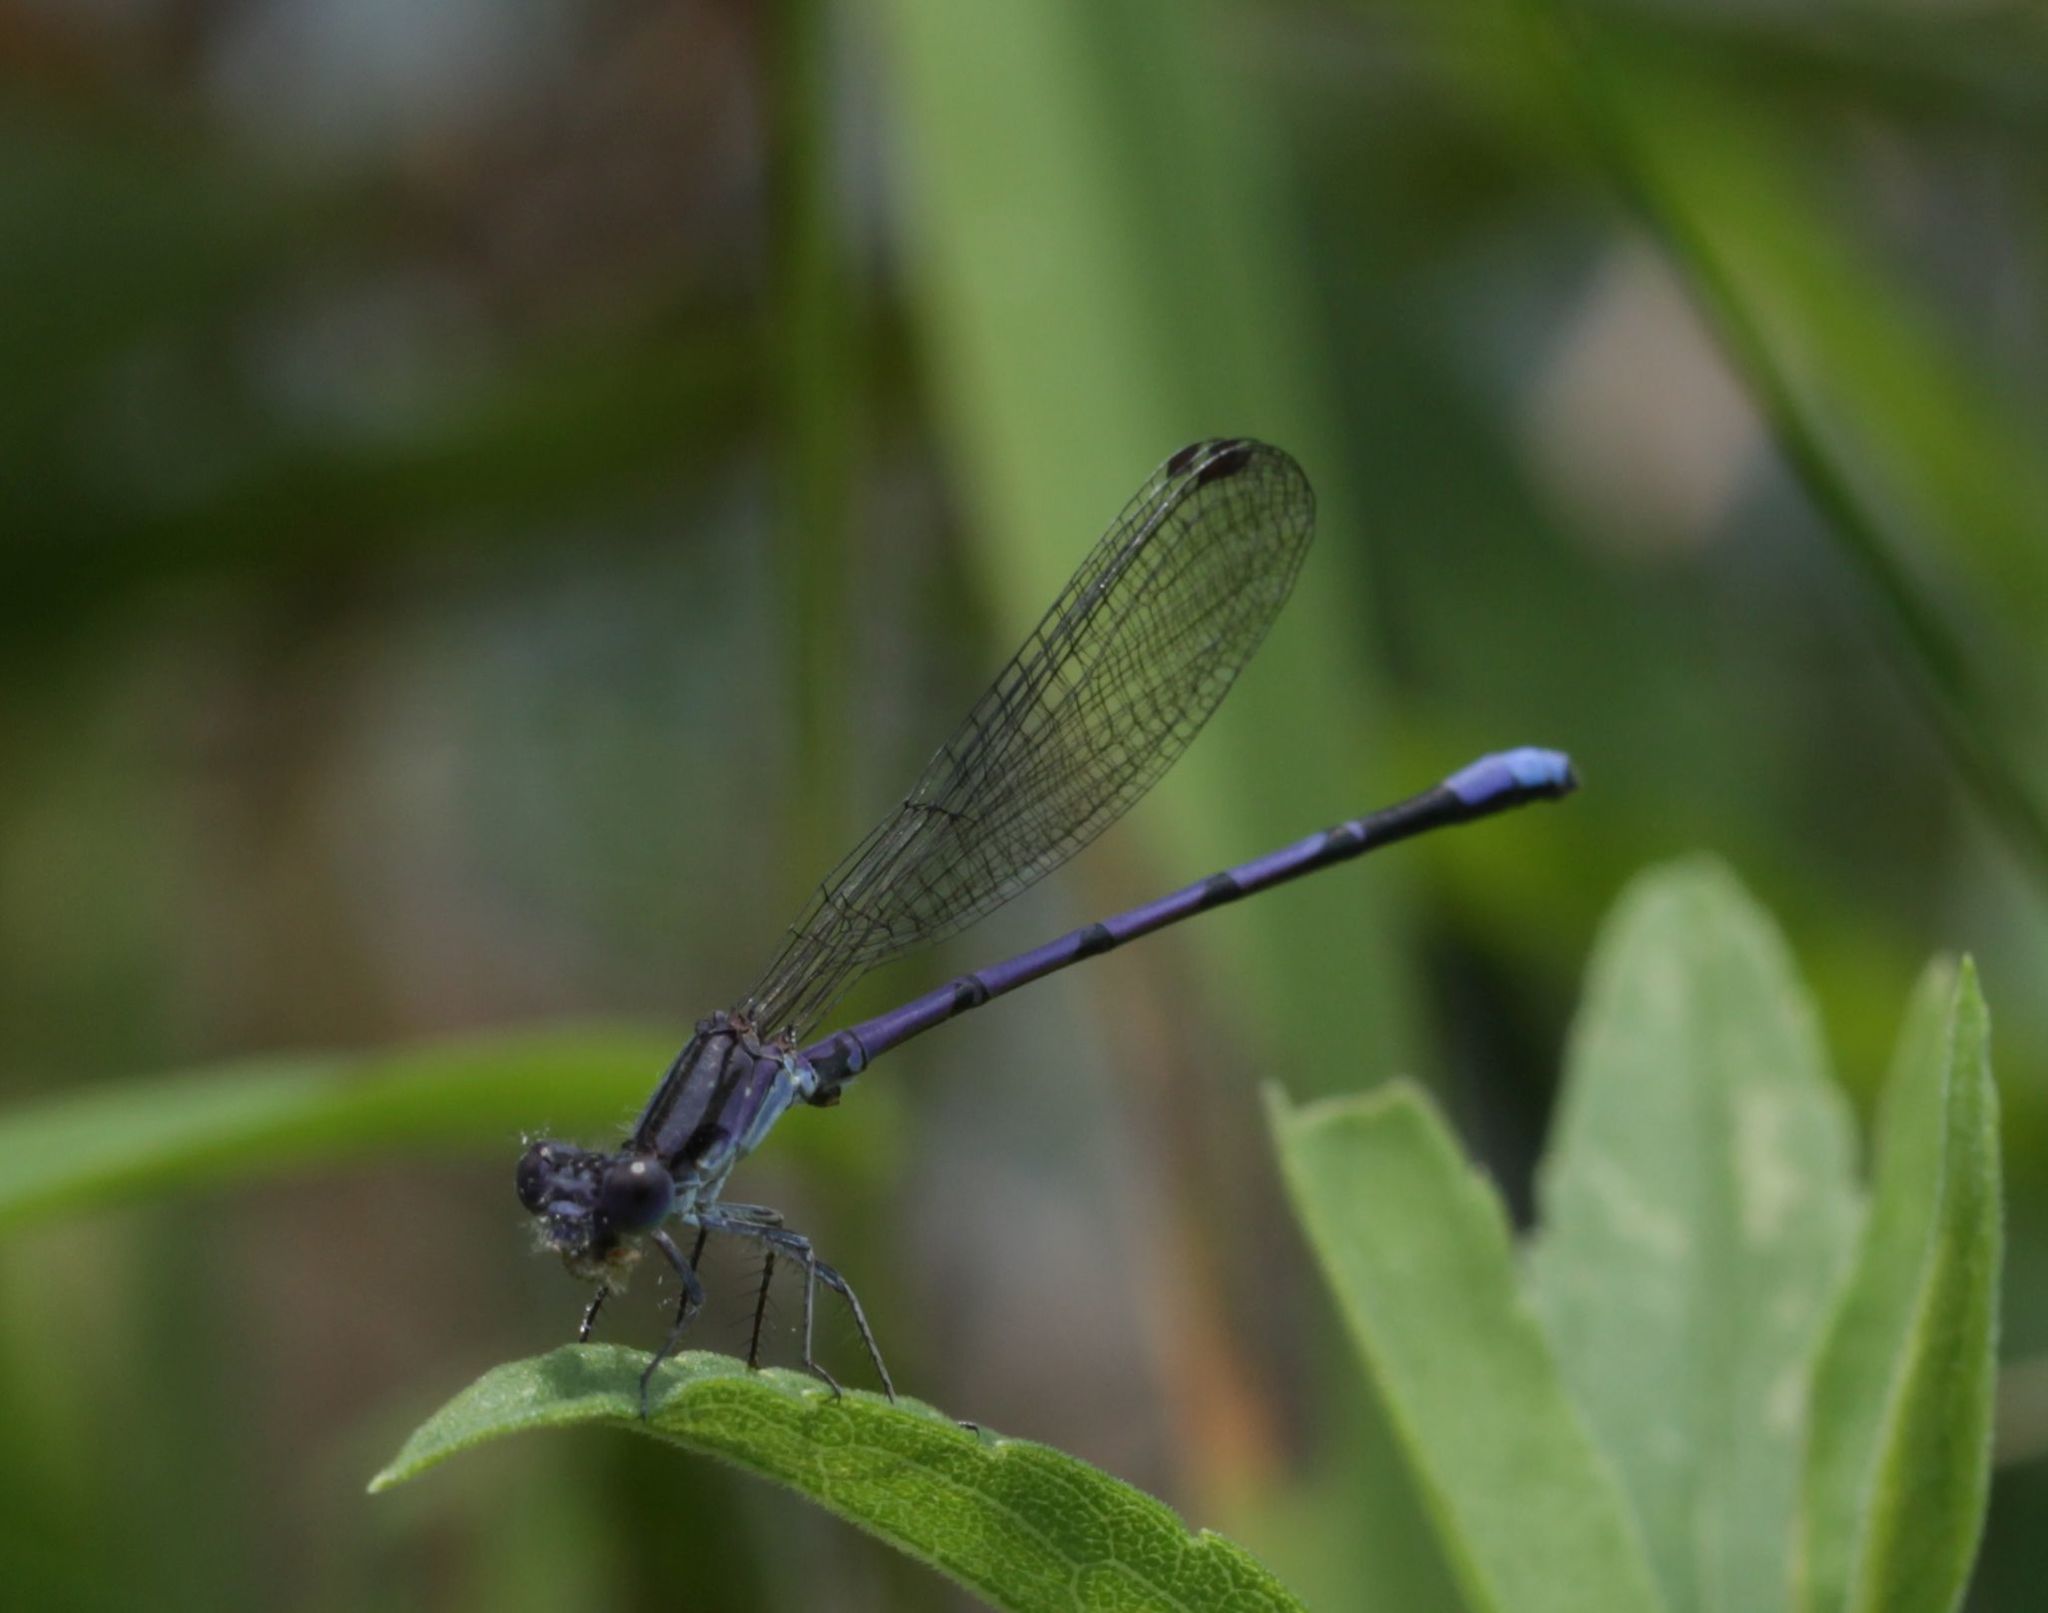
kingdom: Animalia
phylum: Arthropoda
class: Insecta
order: Odonata
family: Coenagrionidae
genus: Argia
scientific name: Argia fumipennis
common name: Variable dancer
